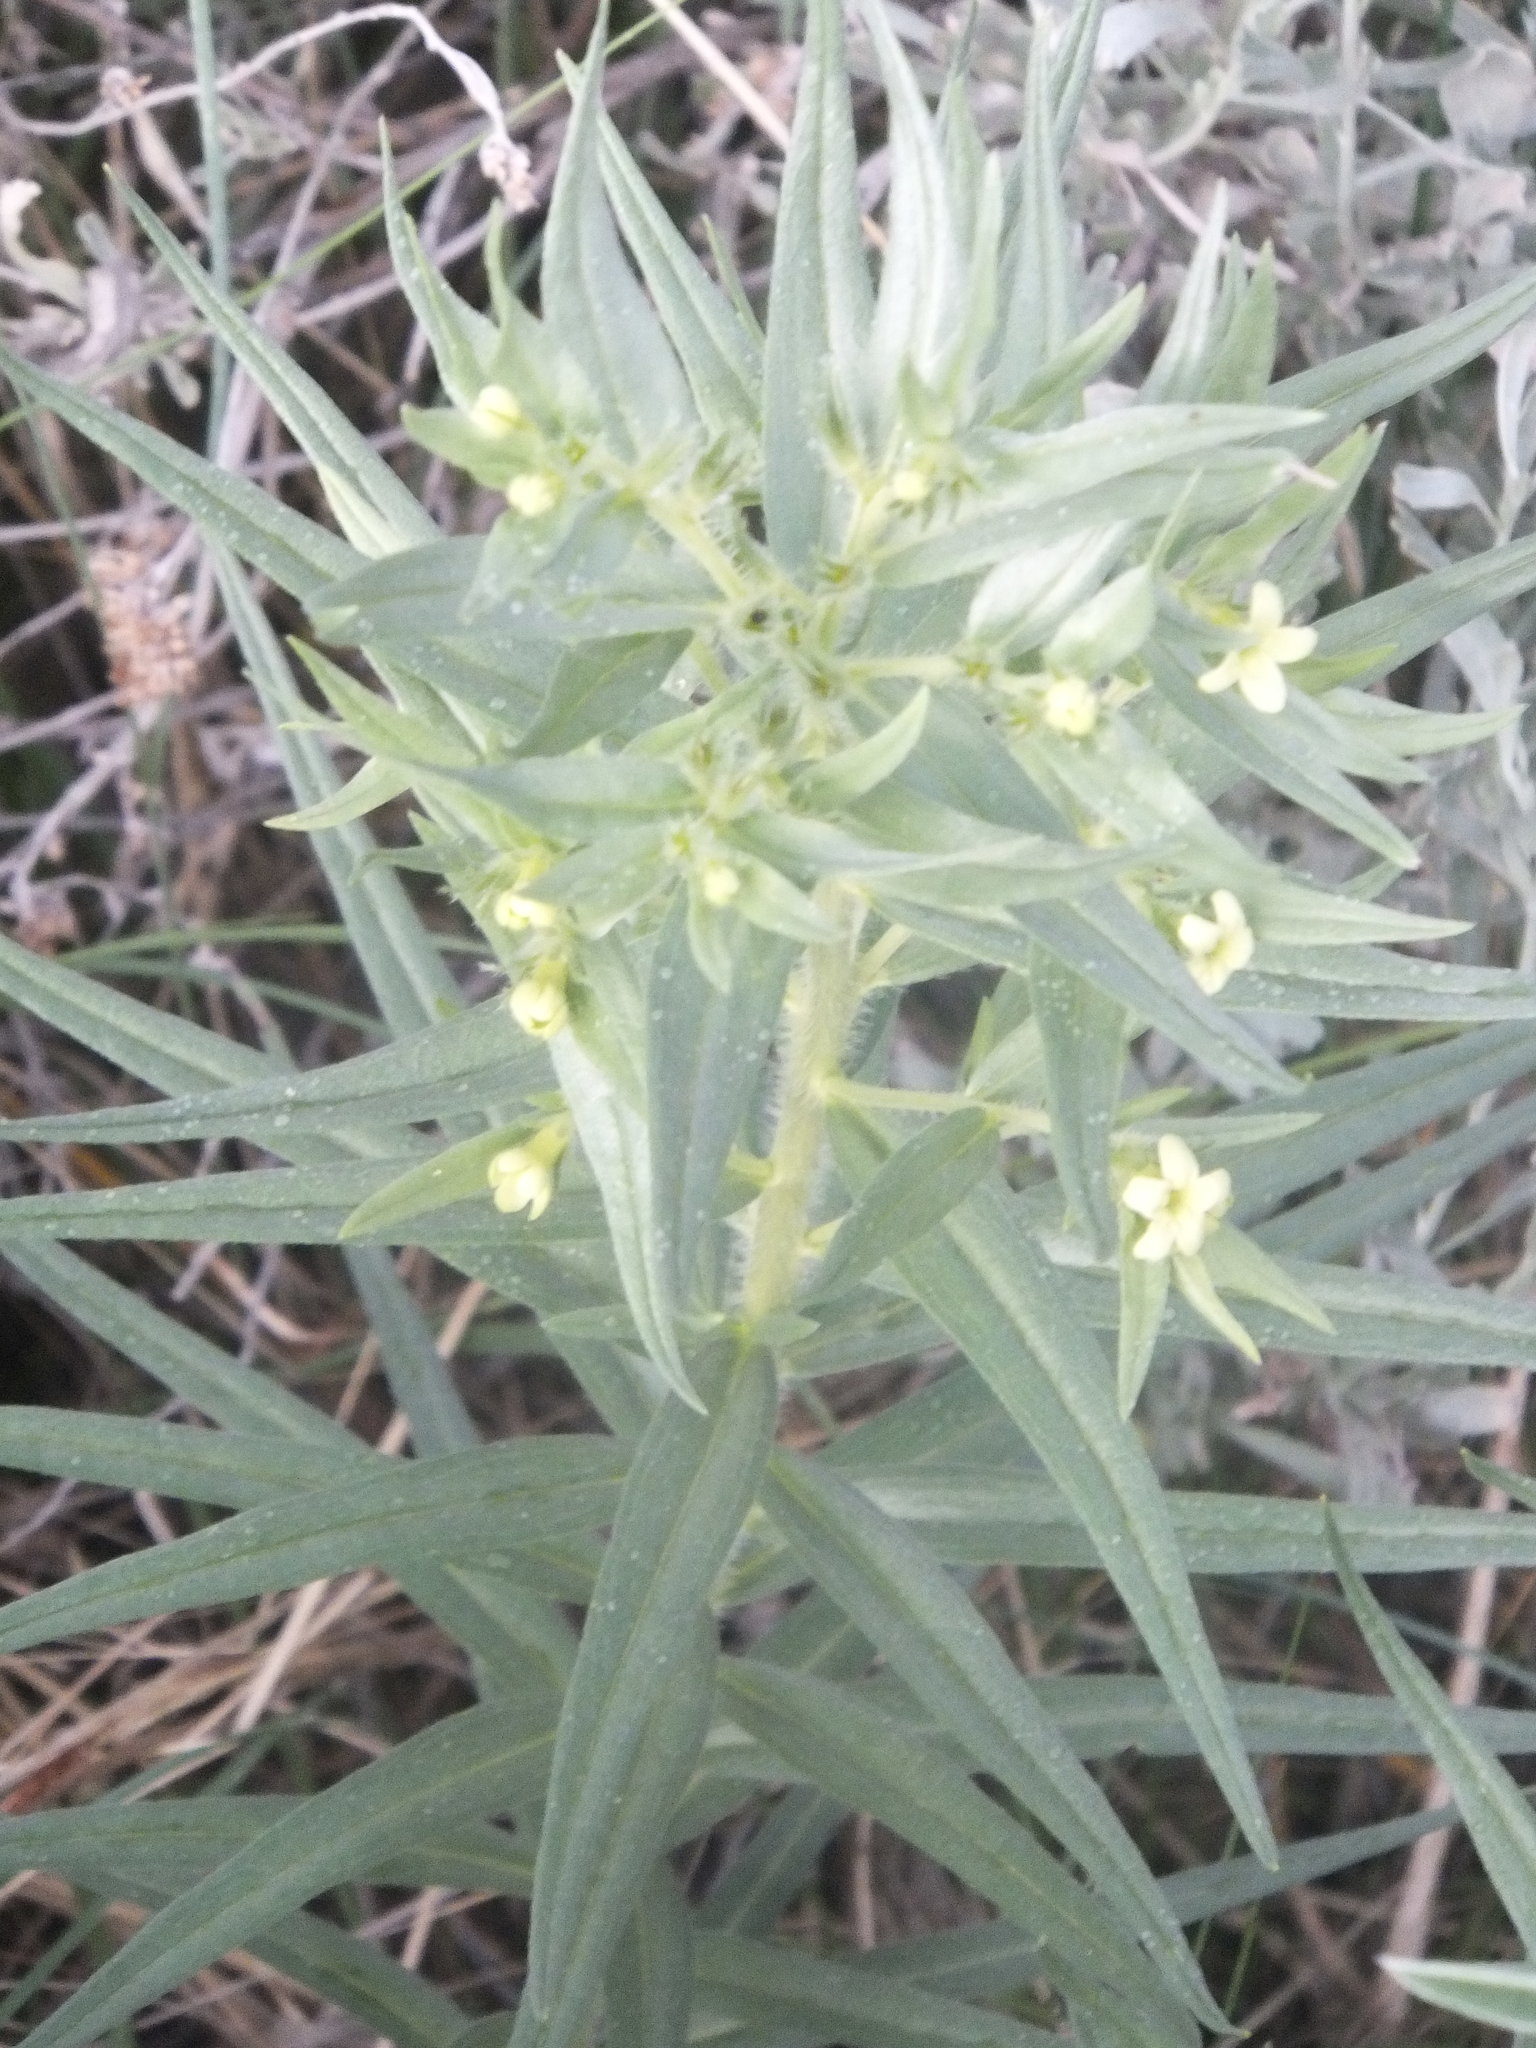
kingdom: Plantae
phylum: Tracheophyta
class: Magnoliopsida
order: Boraginales
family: Boraginaceae
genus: Lithospermum
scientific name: Lithospermum ruderale
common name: Western gromwell
